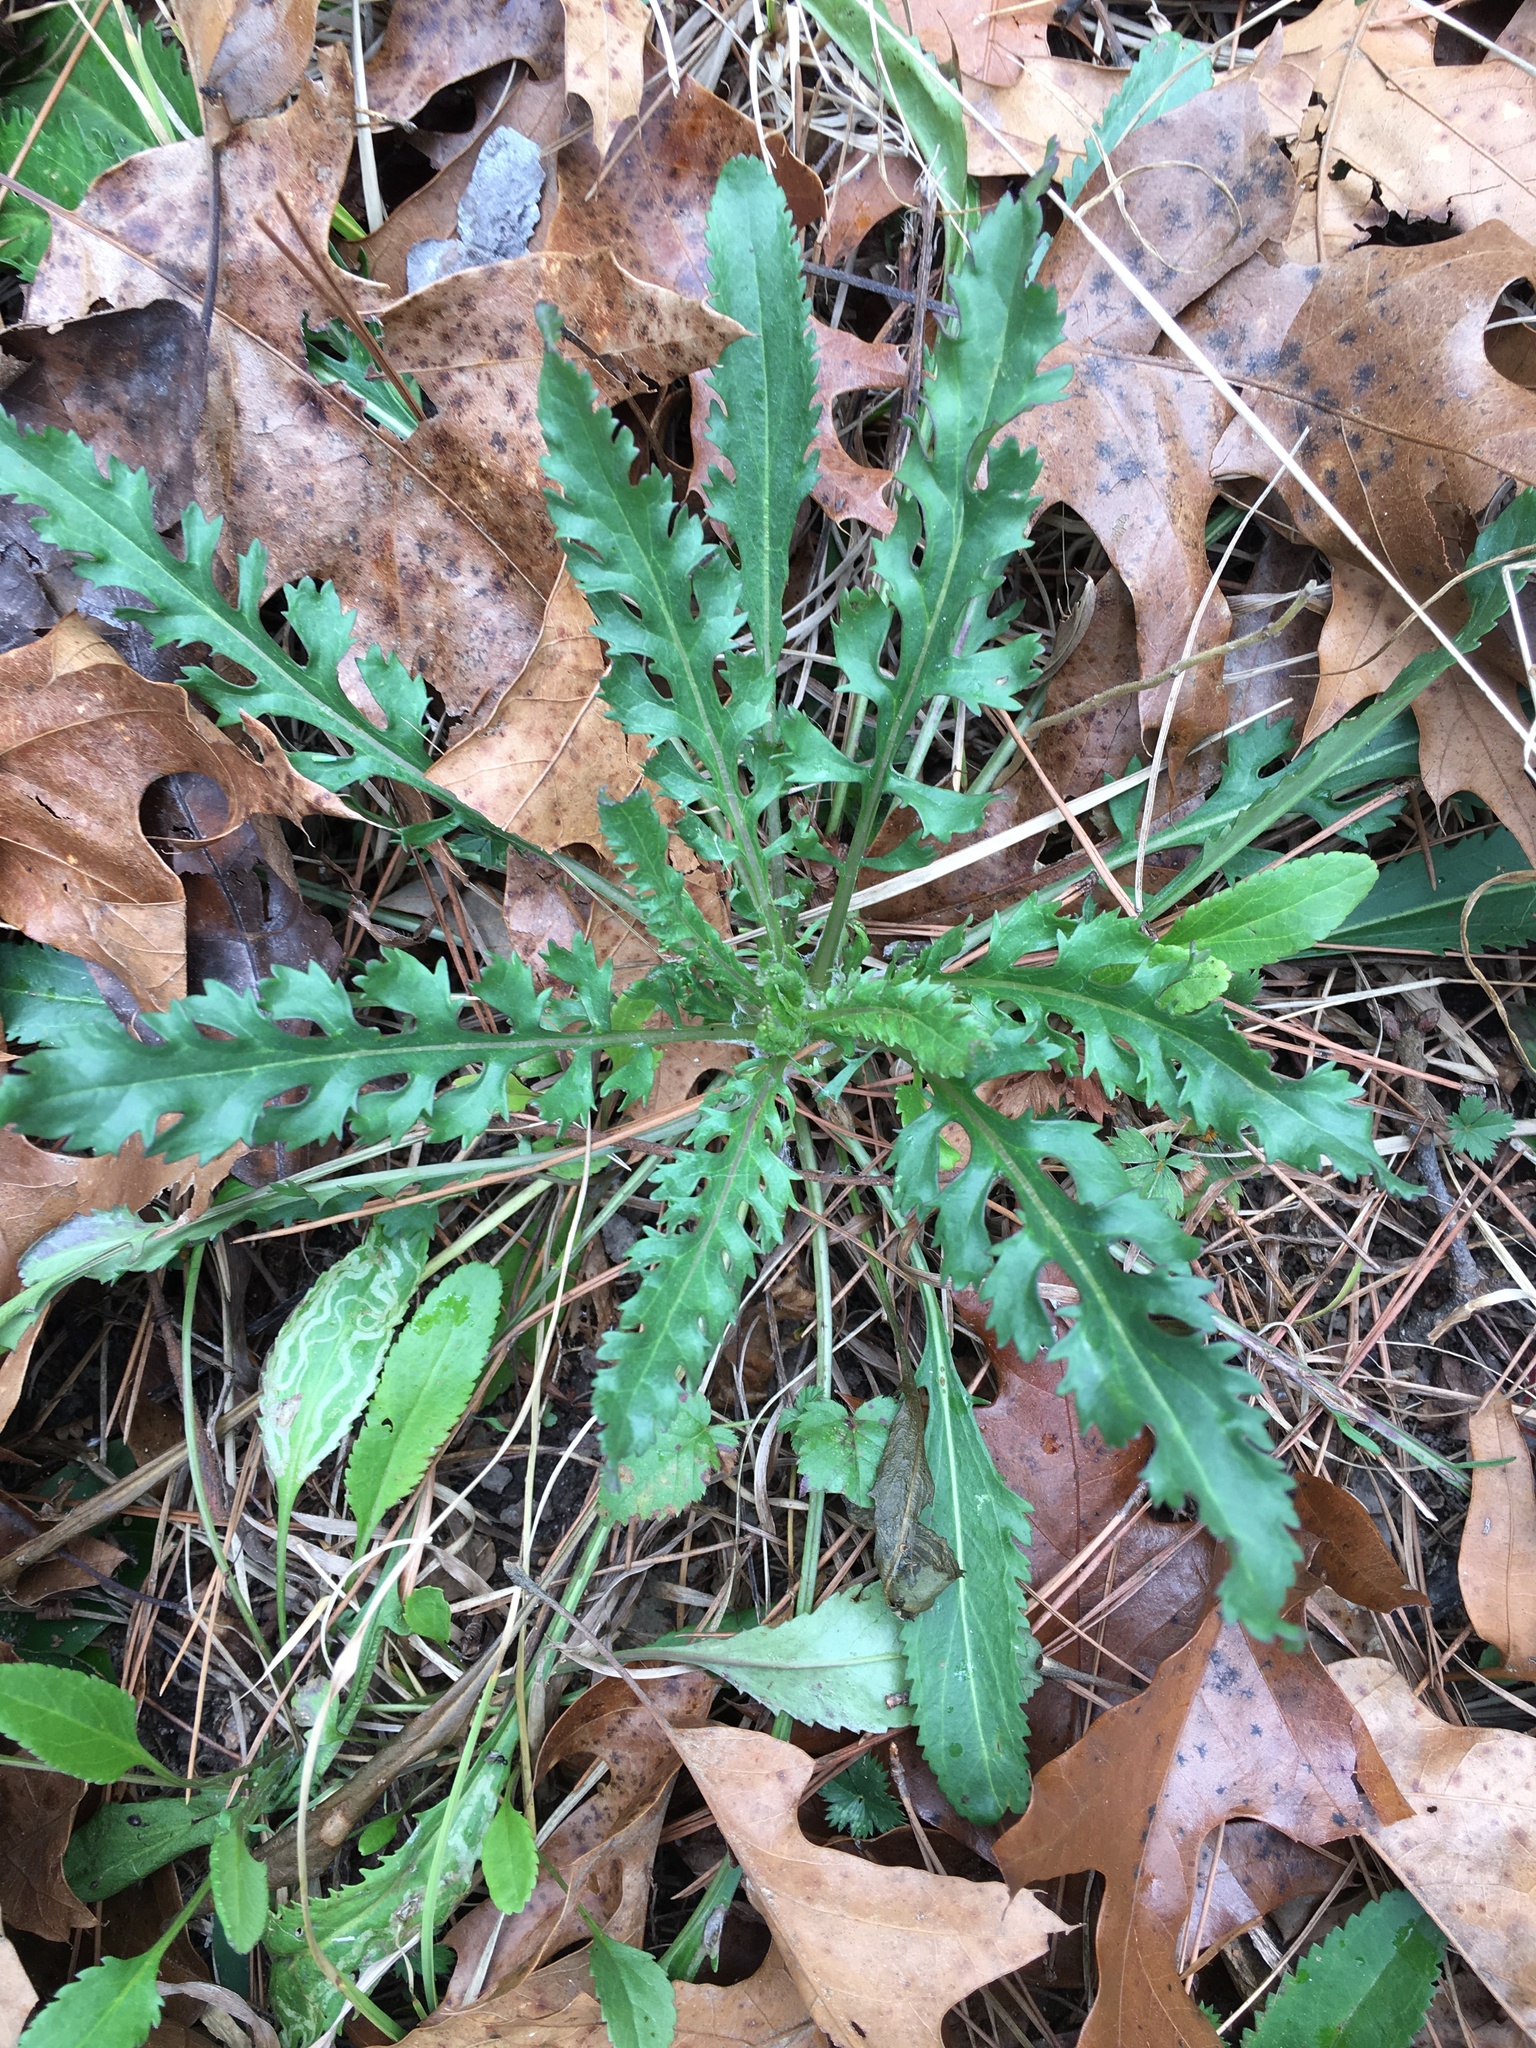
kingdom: Plantae
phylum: Tracheophyta
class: Magnoliopsida
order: Asterales
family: Asteraceae
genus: Packera
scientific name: Packera anonyma
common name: Small ragwort
